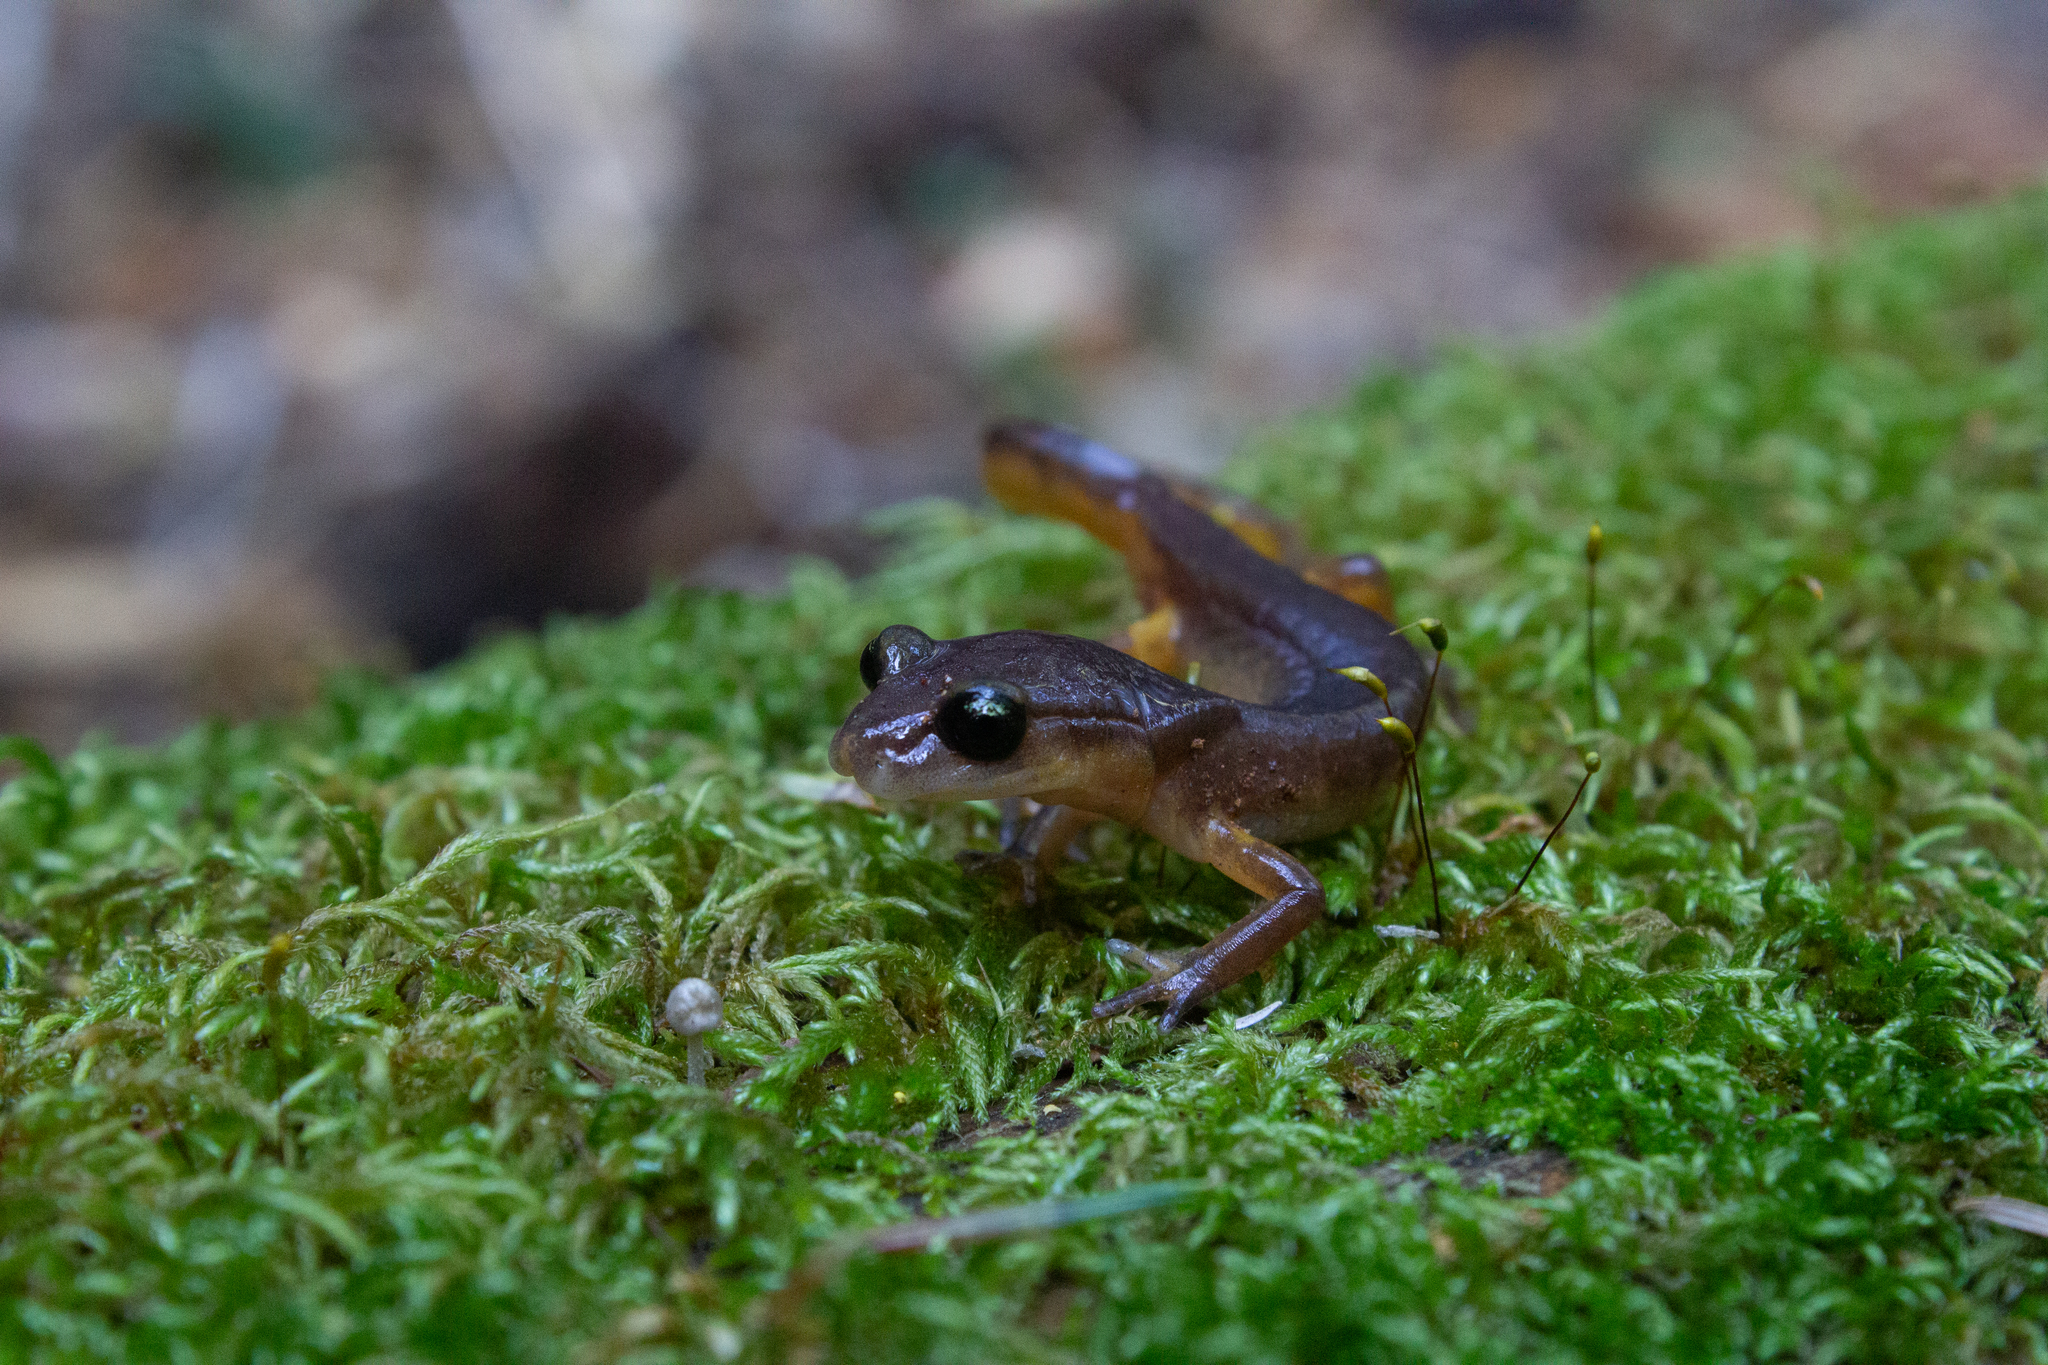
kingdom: Animalia
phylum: Chordata
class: Amphibia
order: Caudata
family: Plethodontidae
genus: Ensatina
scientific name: Ensatina eschscholtzii
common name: Ensatina
